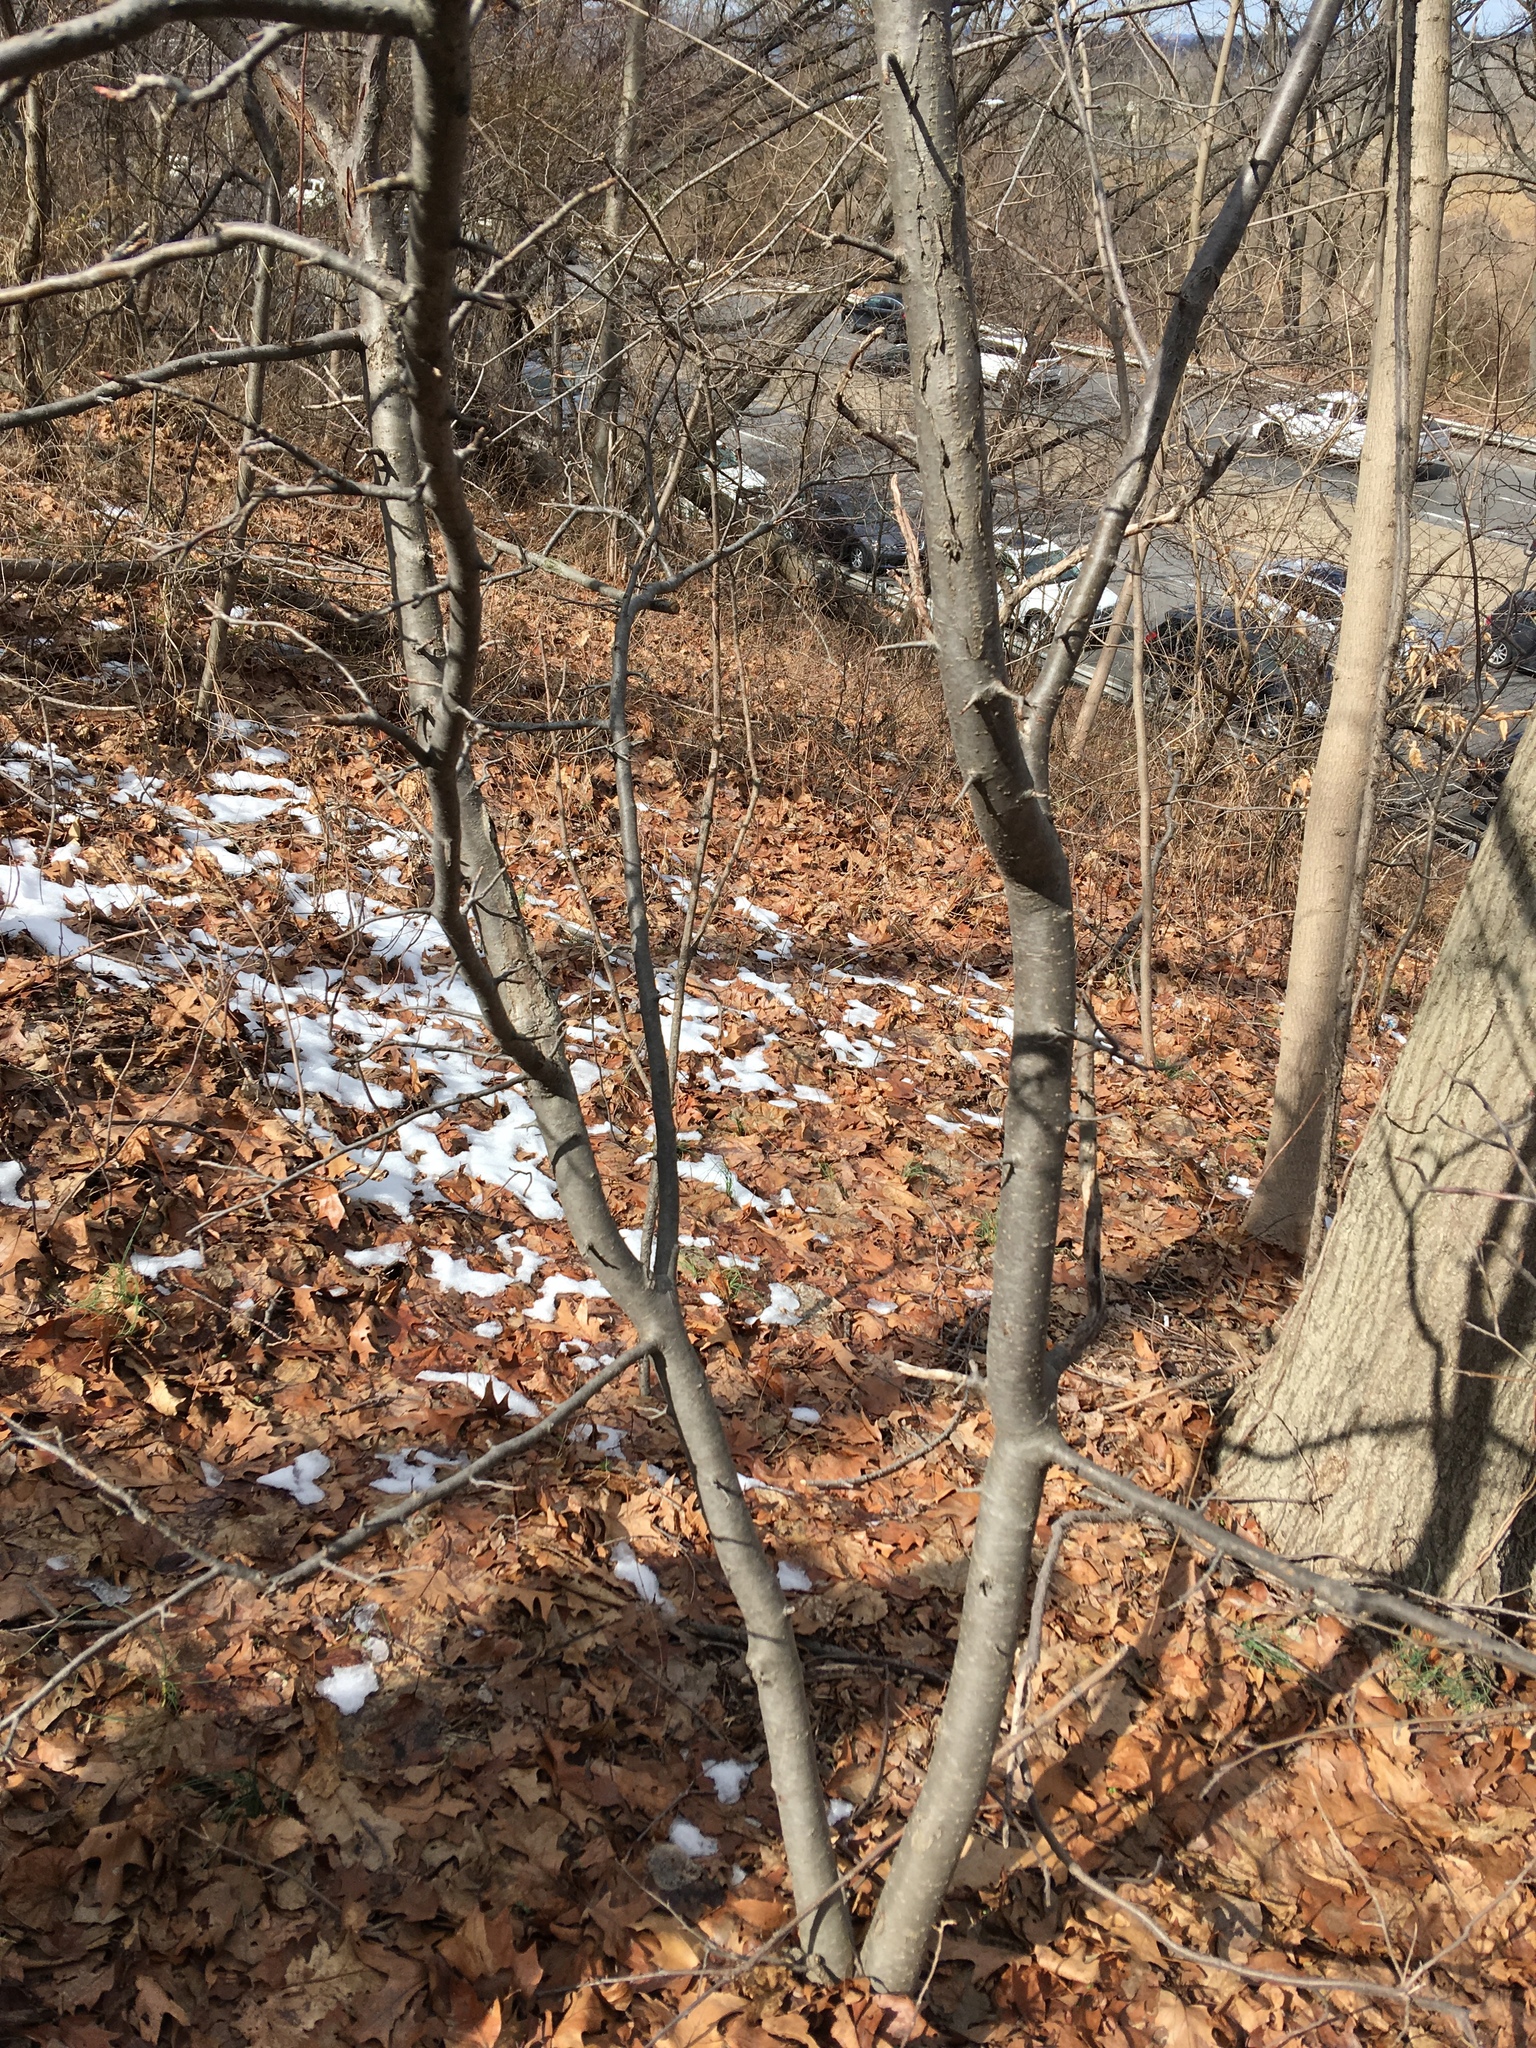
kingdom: Plantae
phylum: Tracheophyta
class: Magnoliopsida
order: Rosales
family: Rosaceae
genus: Malus
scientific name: Malus hupehensis
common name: Chinese crab apple
